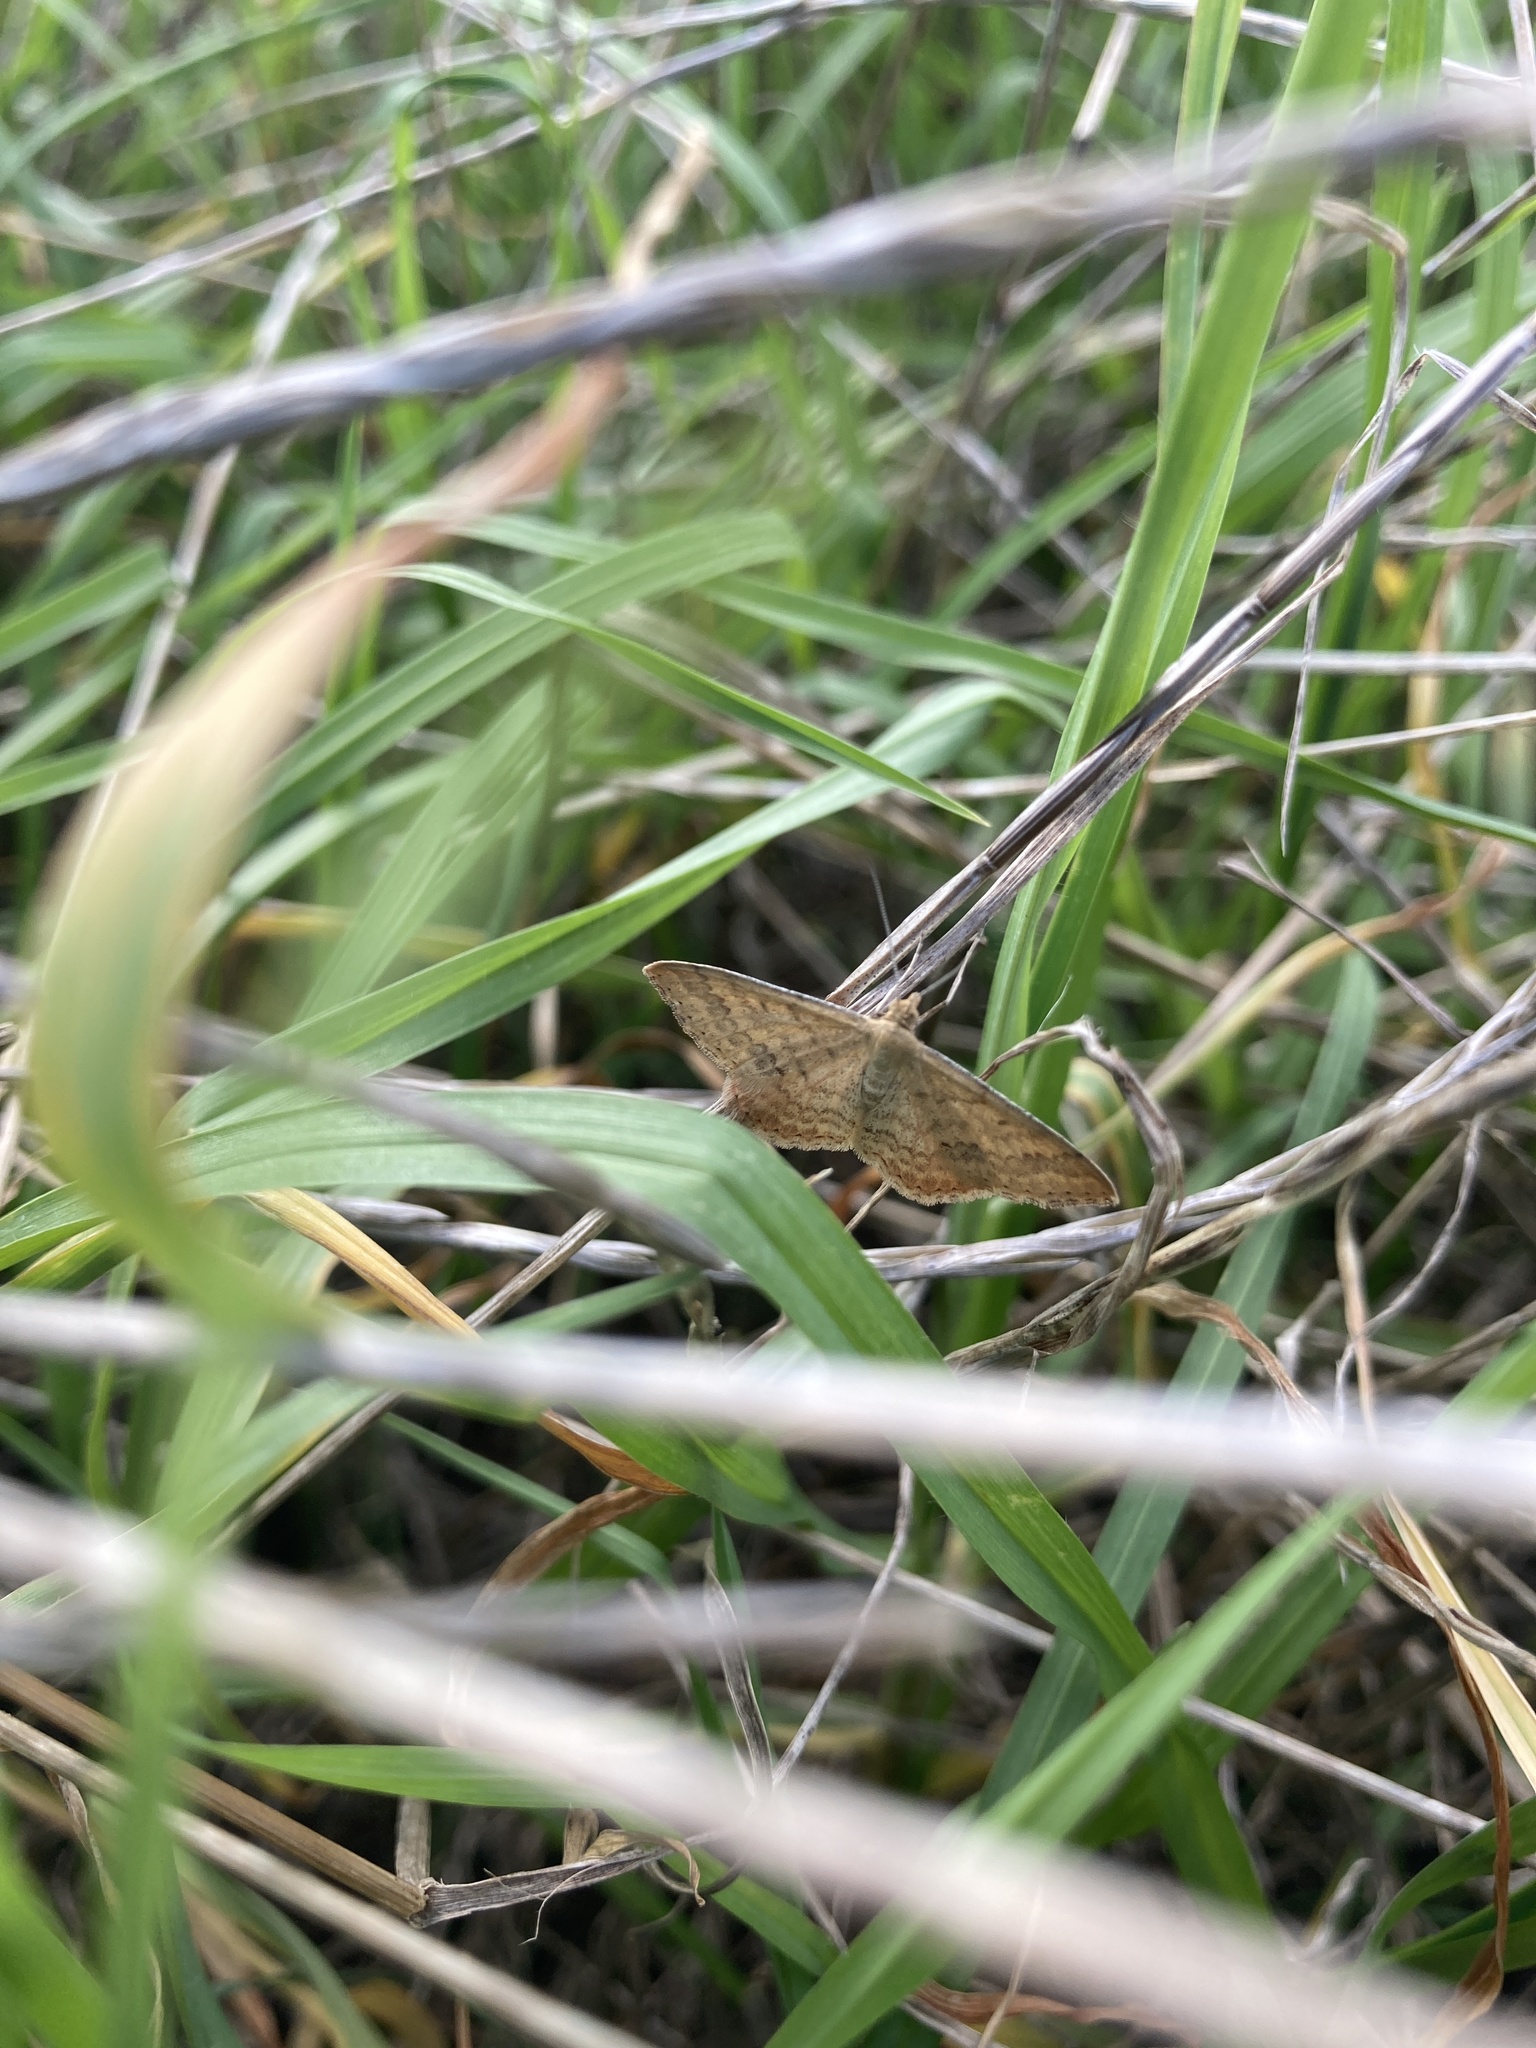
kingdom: Animalia
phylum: Arthropoda
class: Insecta
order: Lepidoptera
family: Geometridae
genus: Scopula
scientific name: Scopula rubraria
